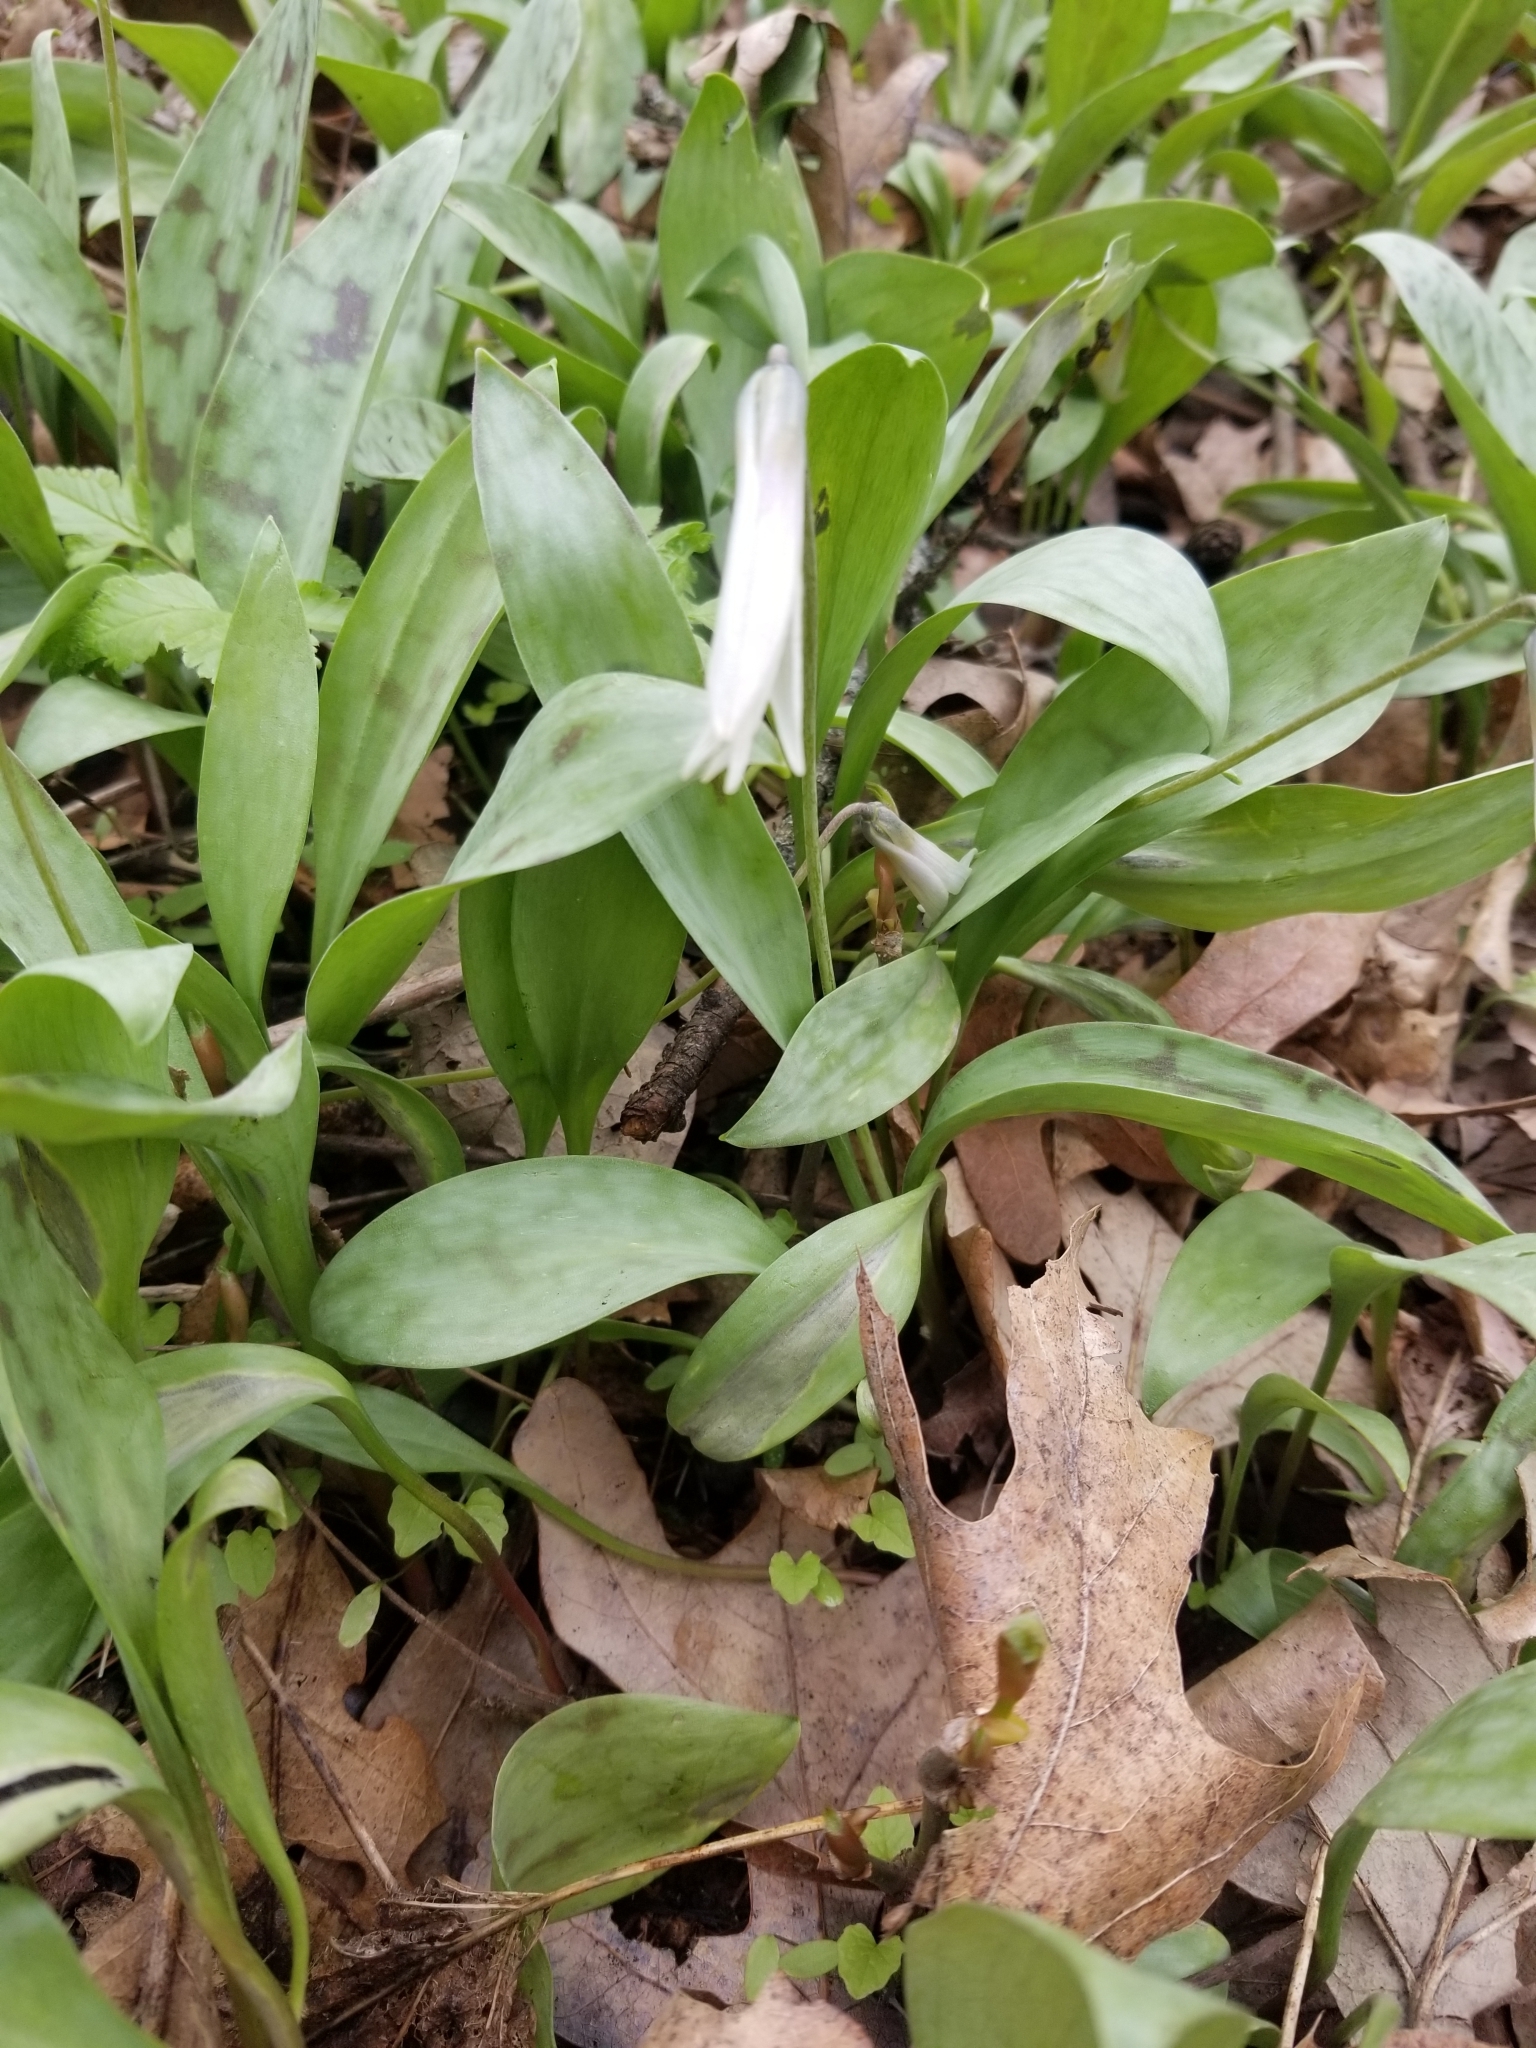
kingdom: Plantae
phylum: Tracheophyta
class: Liliopsida
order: Liliales
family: Liliaceae
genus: Erythronium
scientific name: Erythronium albidum
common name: White trout-lily
